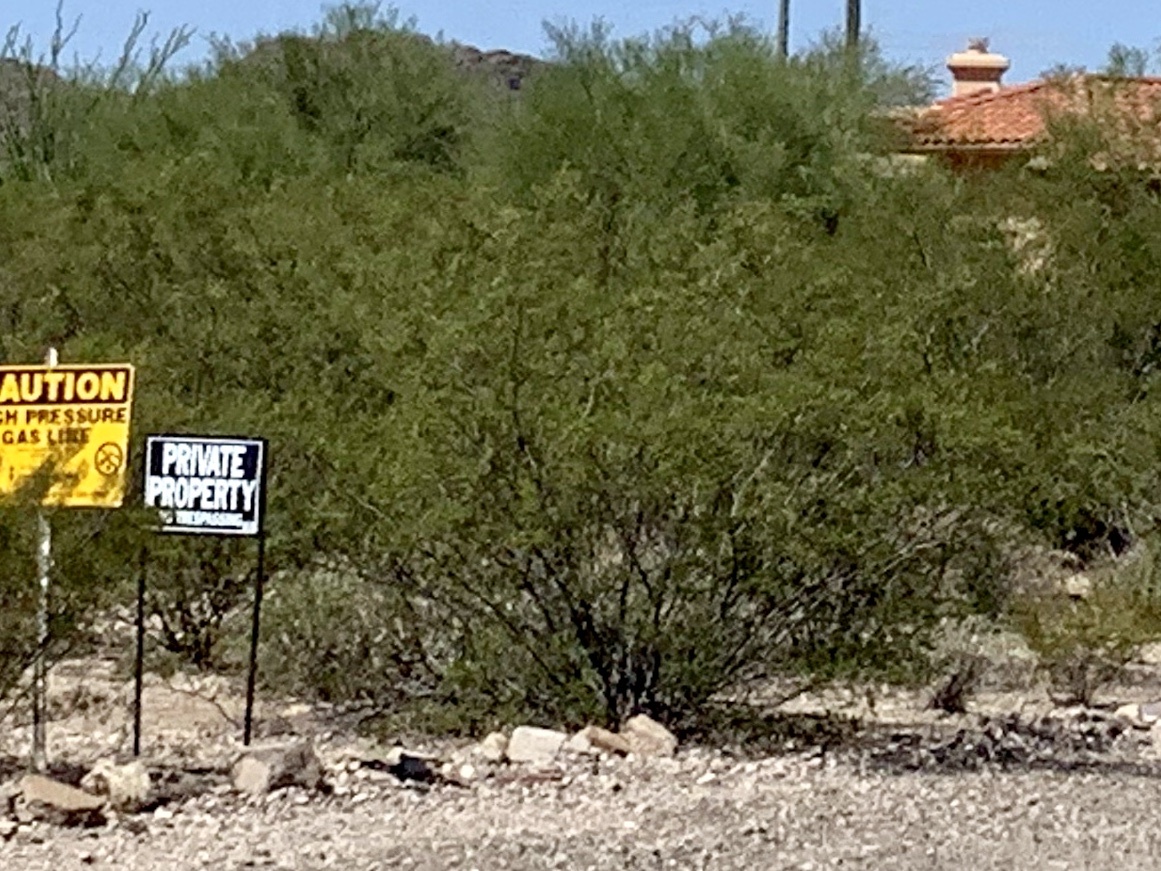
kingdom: Plantae
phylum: Tracheophyta
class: Magnoliopsida
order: Zygophyllales
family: Zygophyllaceae
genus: Larrea
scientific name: Larrea tridentata
